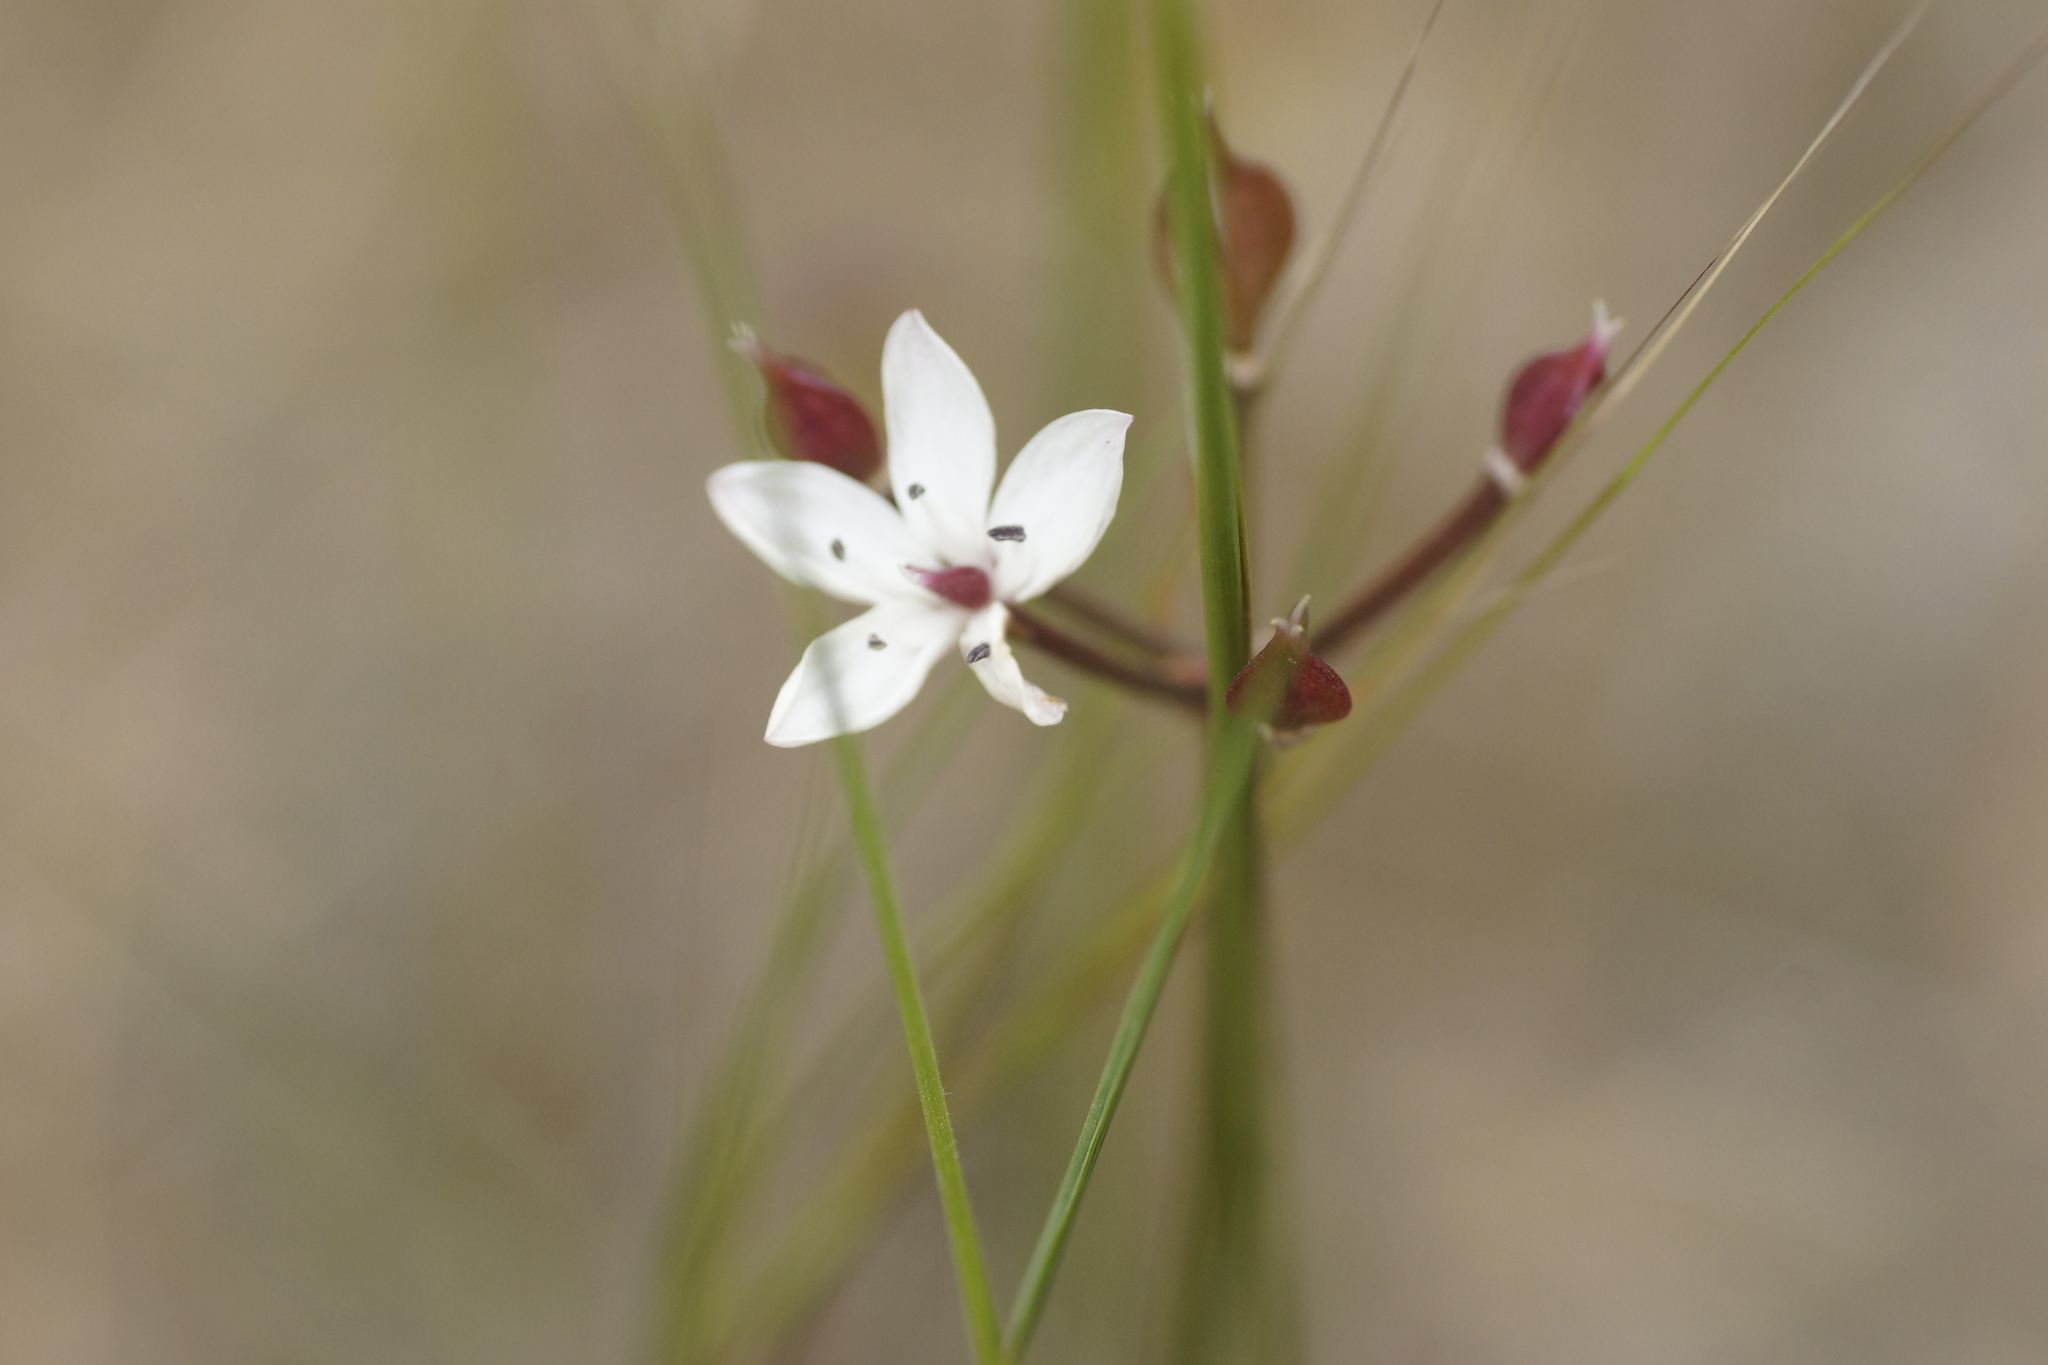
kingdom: Plantae
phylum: Tracheophyta
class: Liliopsida
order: Liliales
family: Colchicaceae
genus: Burchardia
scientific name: Burchardia umbellata
